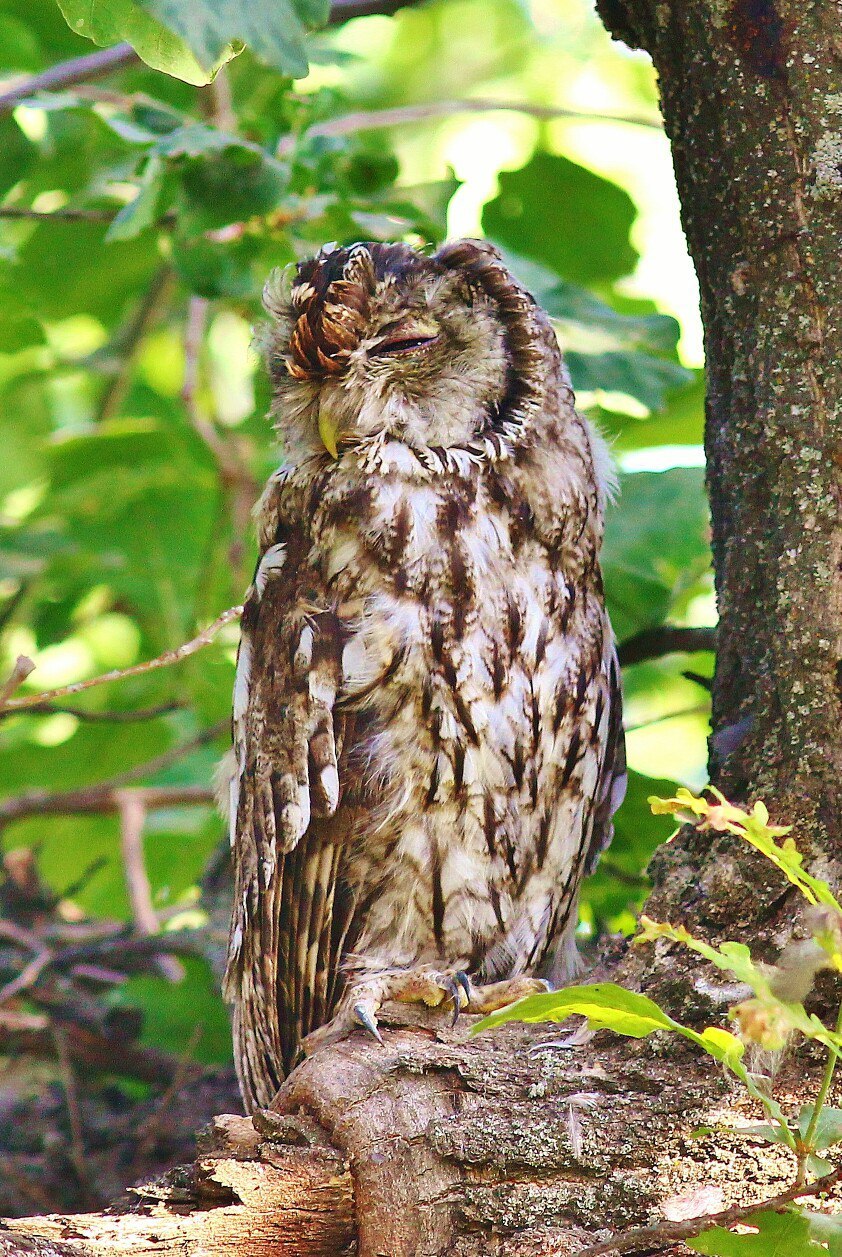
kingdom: Animalia
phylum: Chordata
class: Aves
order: Strigiformes
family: Strigidae
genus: Strix
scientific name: Strix aluco
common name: Tawny owl
